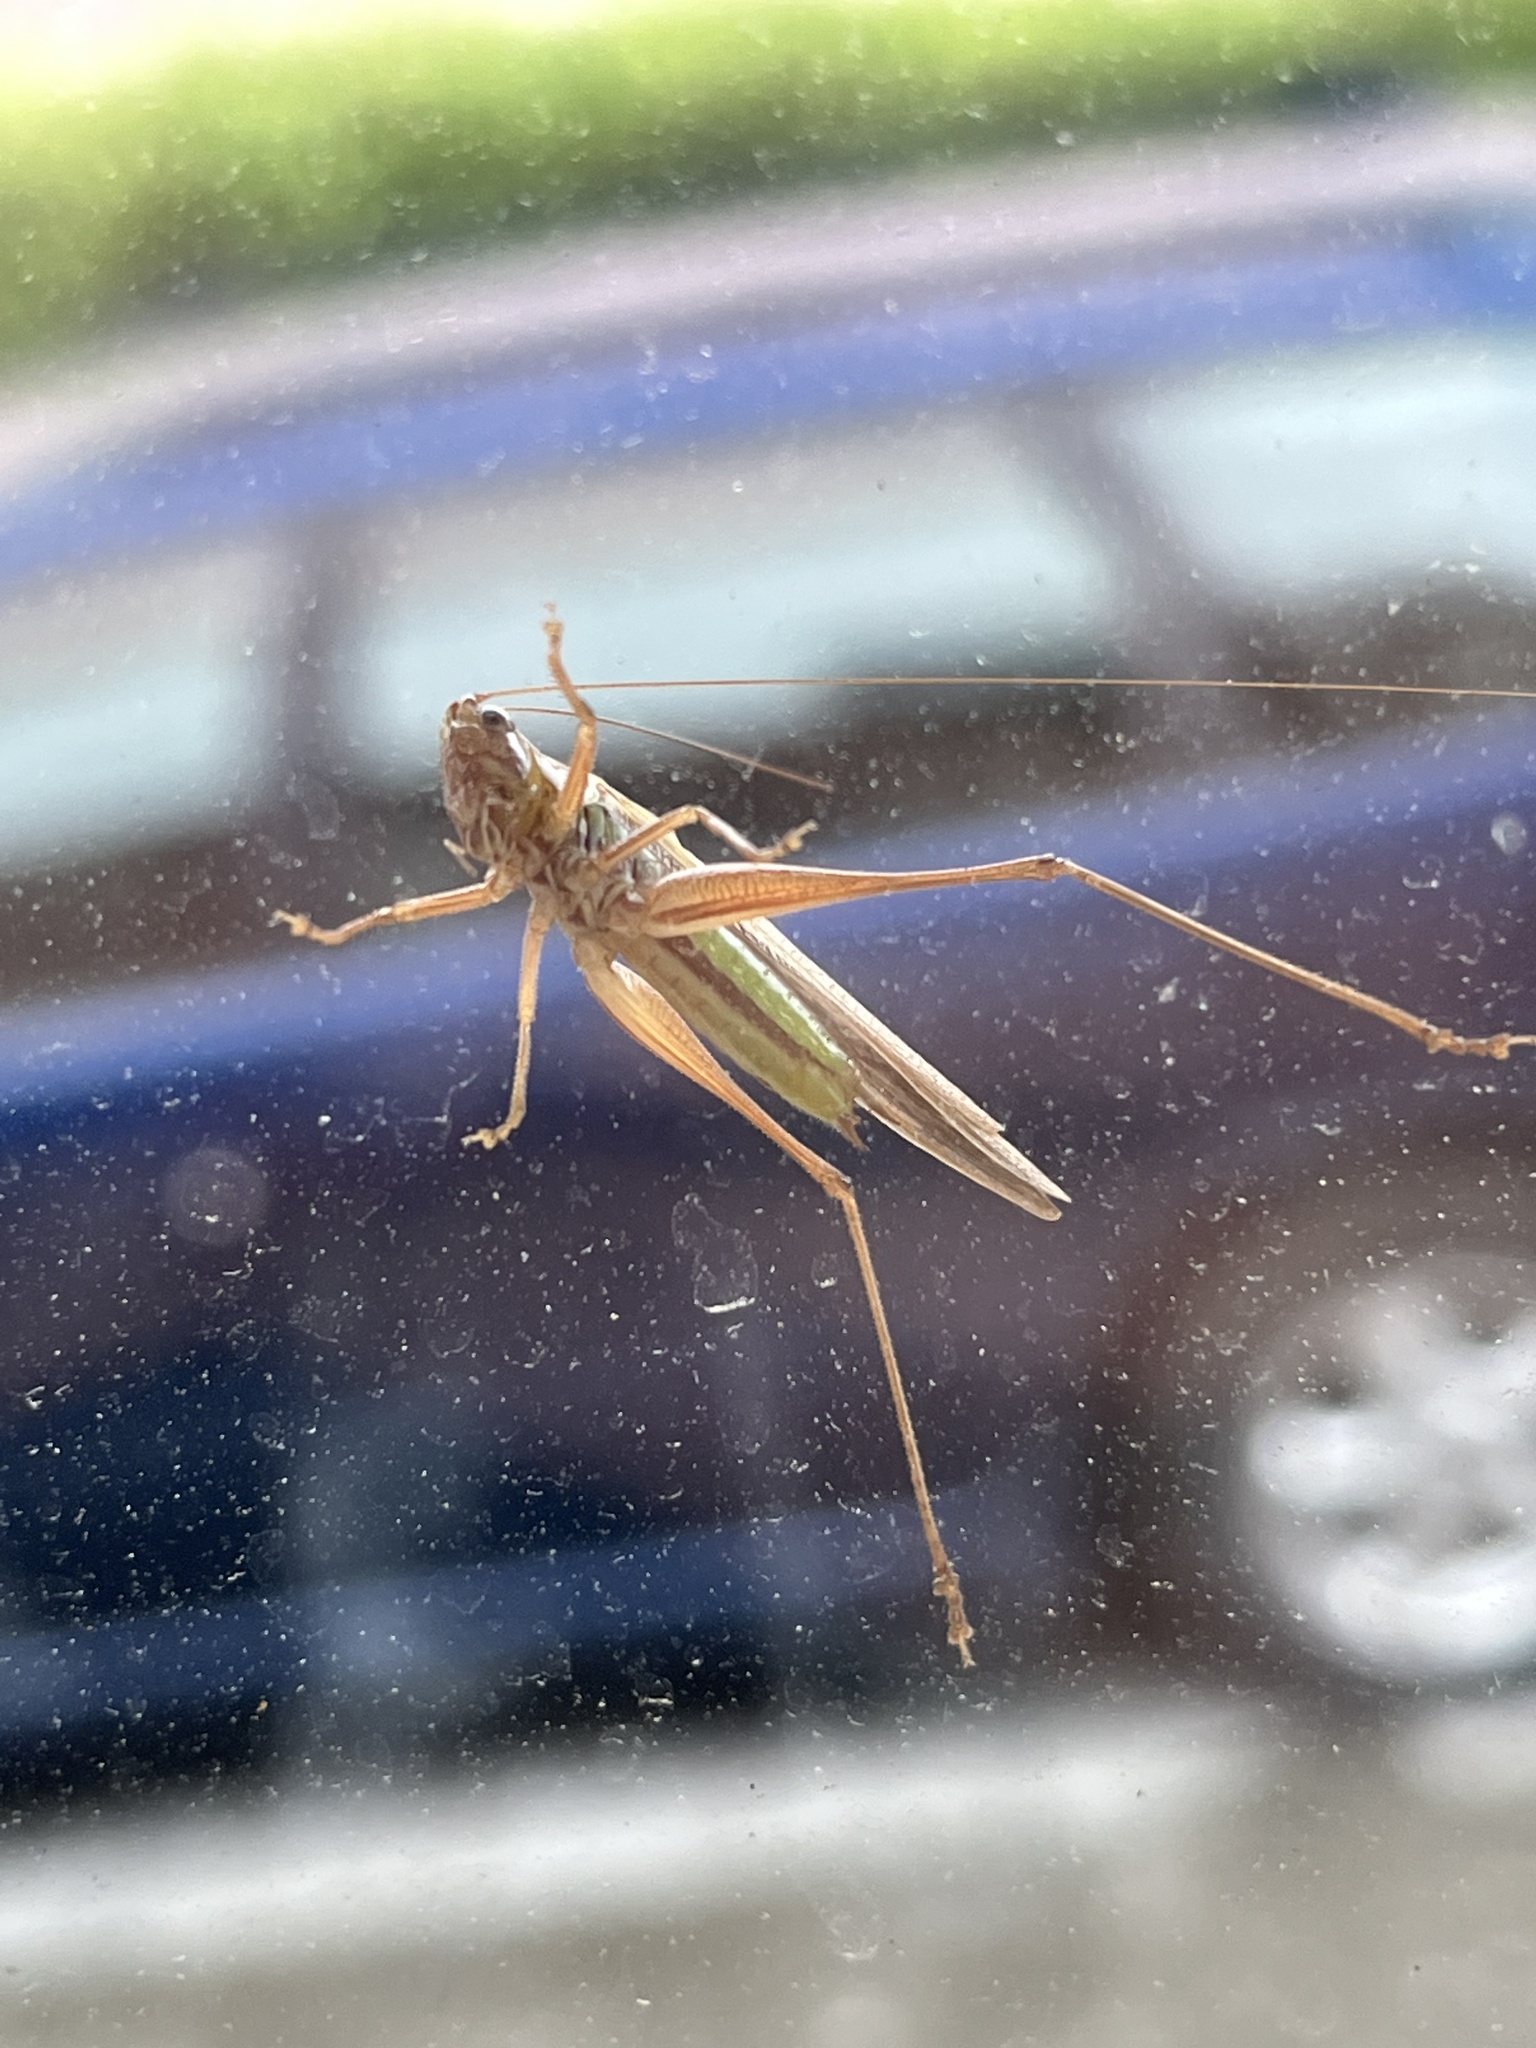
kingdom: Animalia
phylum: Arthropoda
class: Insecta
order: Orthoptera
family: Tettigoniidae
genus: Conocephalus
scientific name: Conocephalus albescens
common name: Whitish meadow katydid
